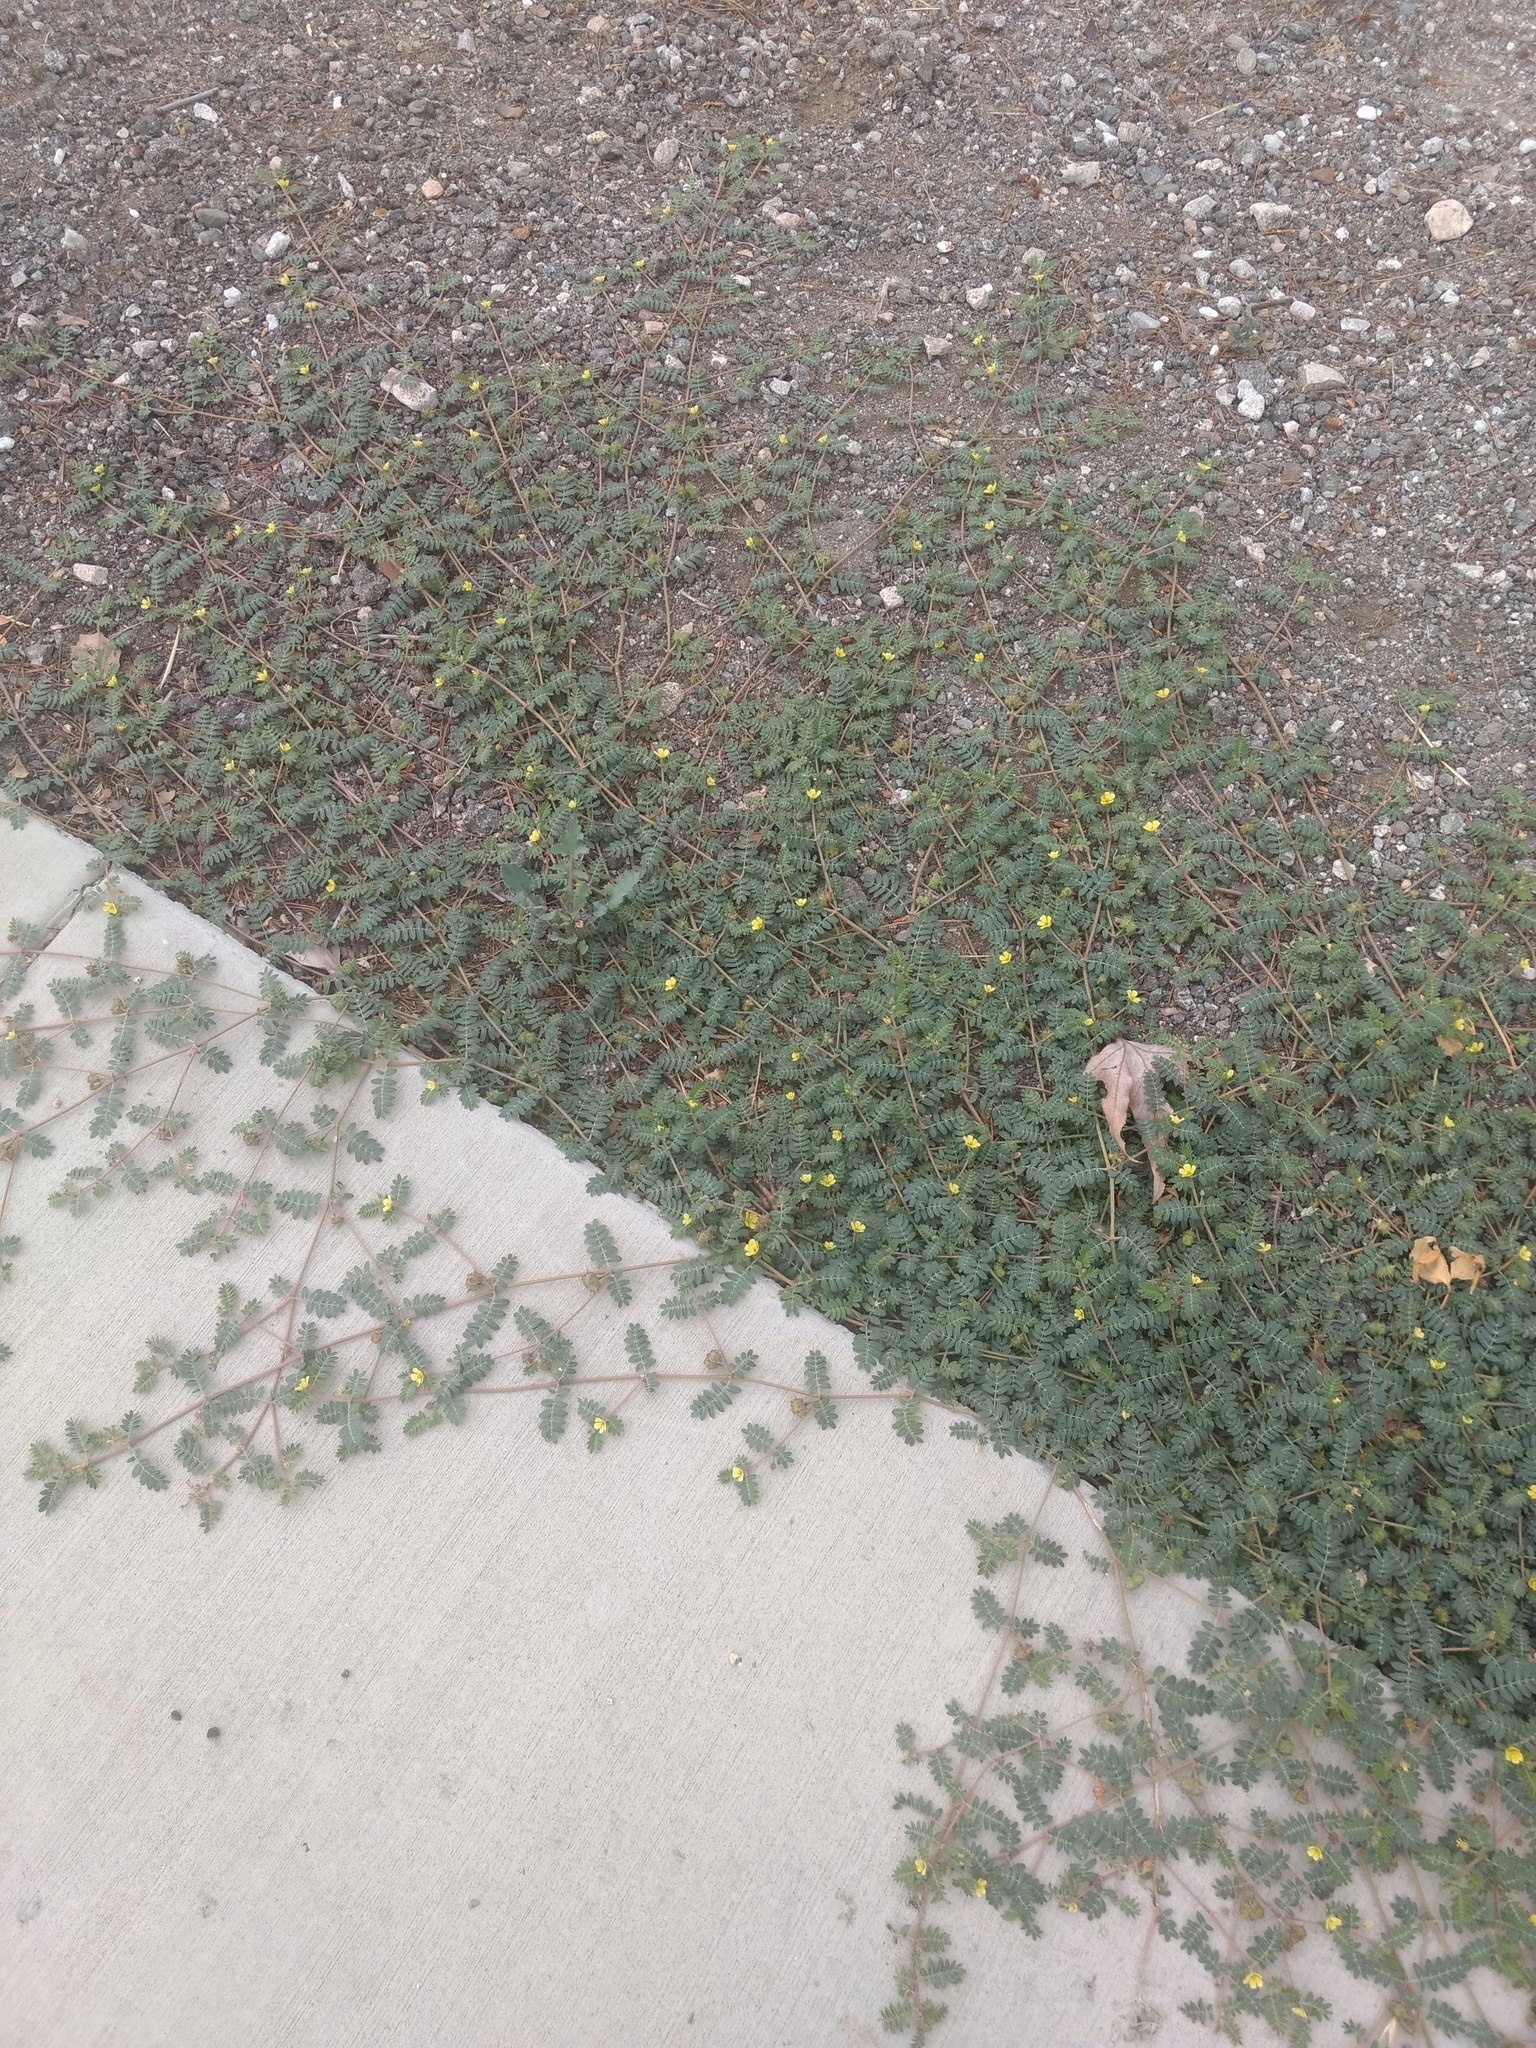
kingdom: Plantae
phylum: Tracheophyta
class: Magnoliopsida
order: Zygophyllales
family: Zygophyllaceae
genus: Tribulus
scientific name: Tribulus terrestris
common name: Puncturevine
